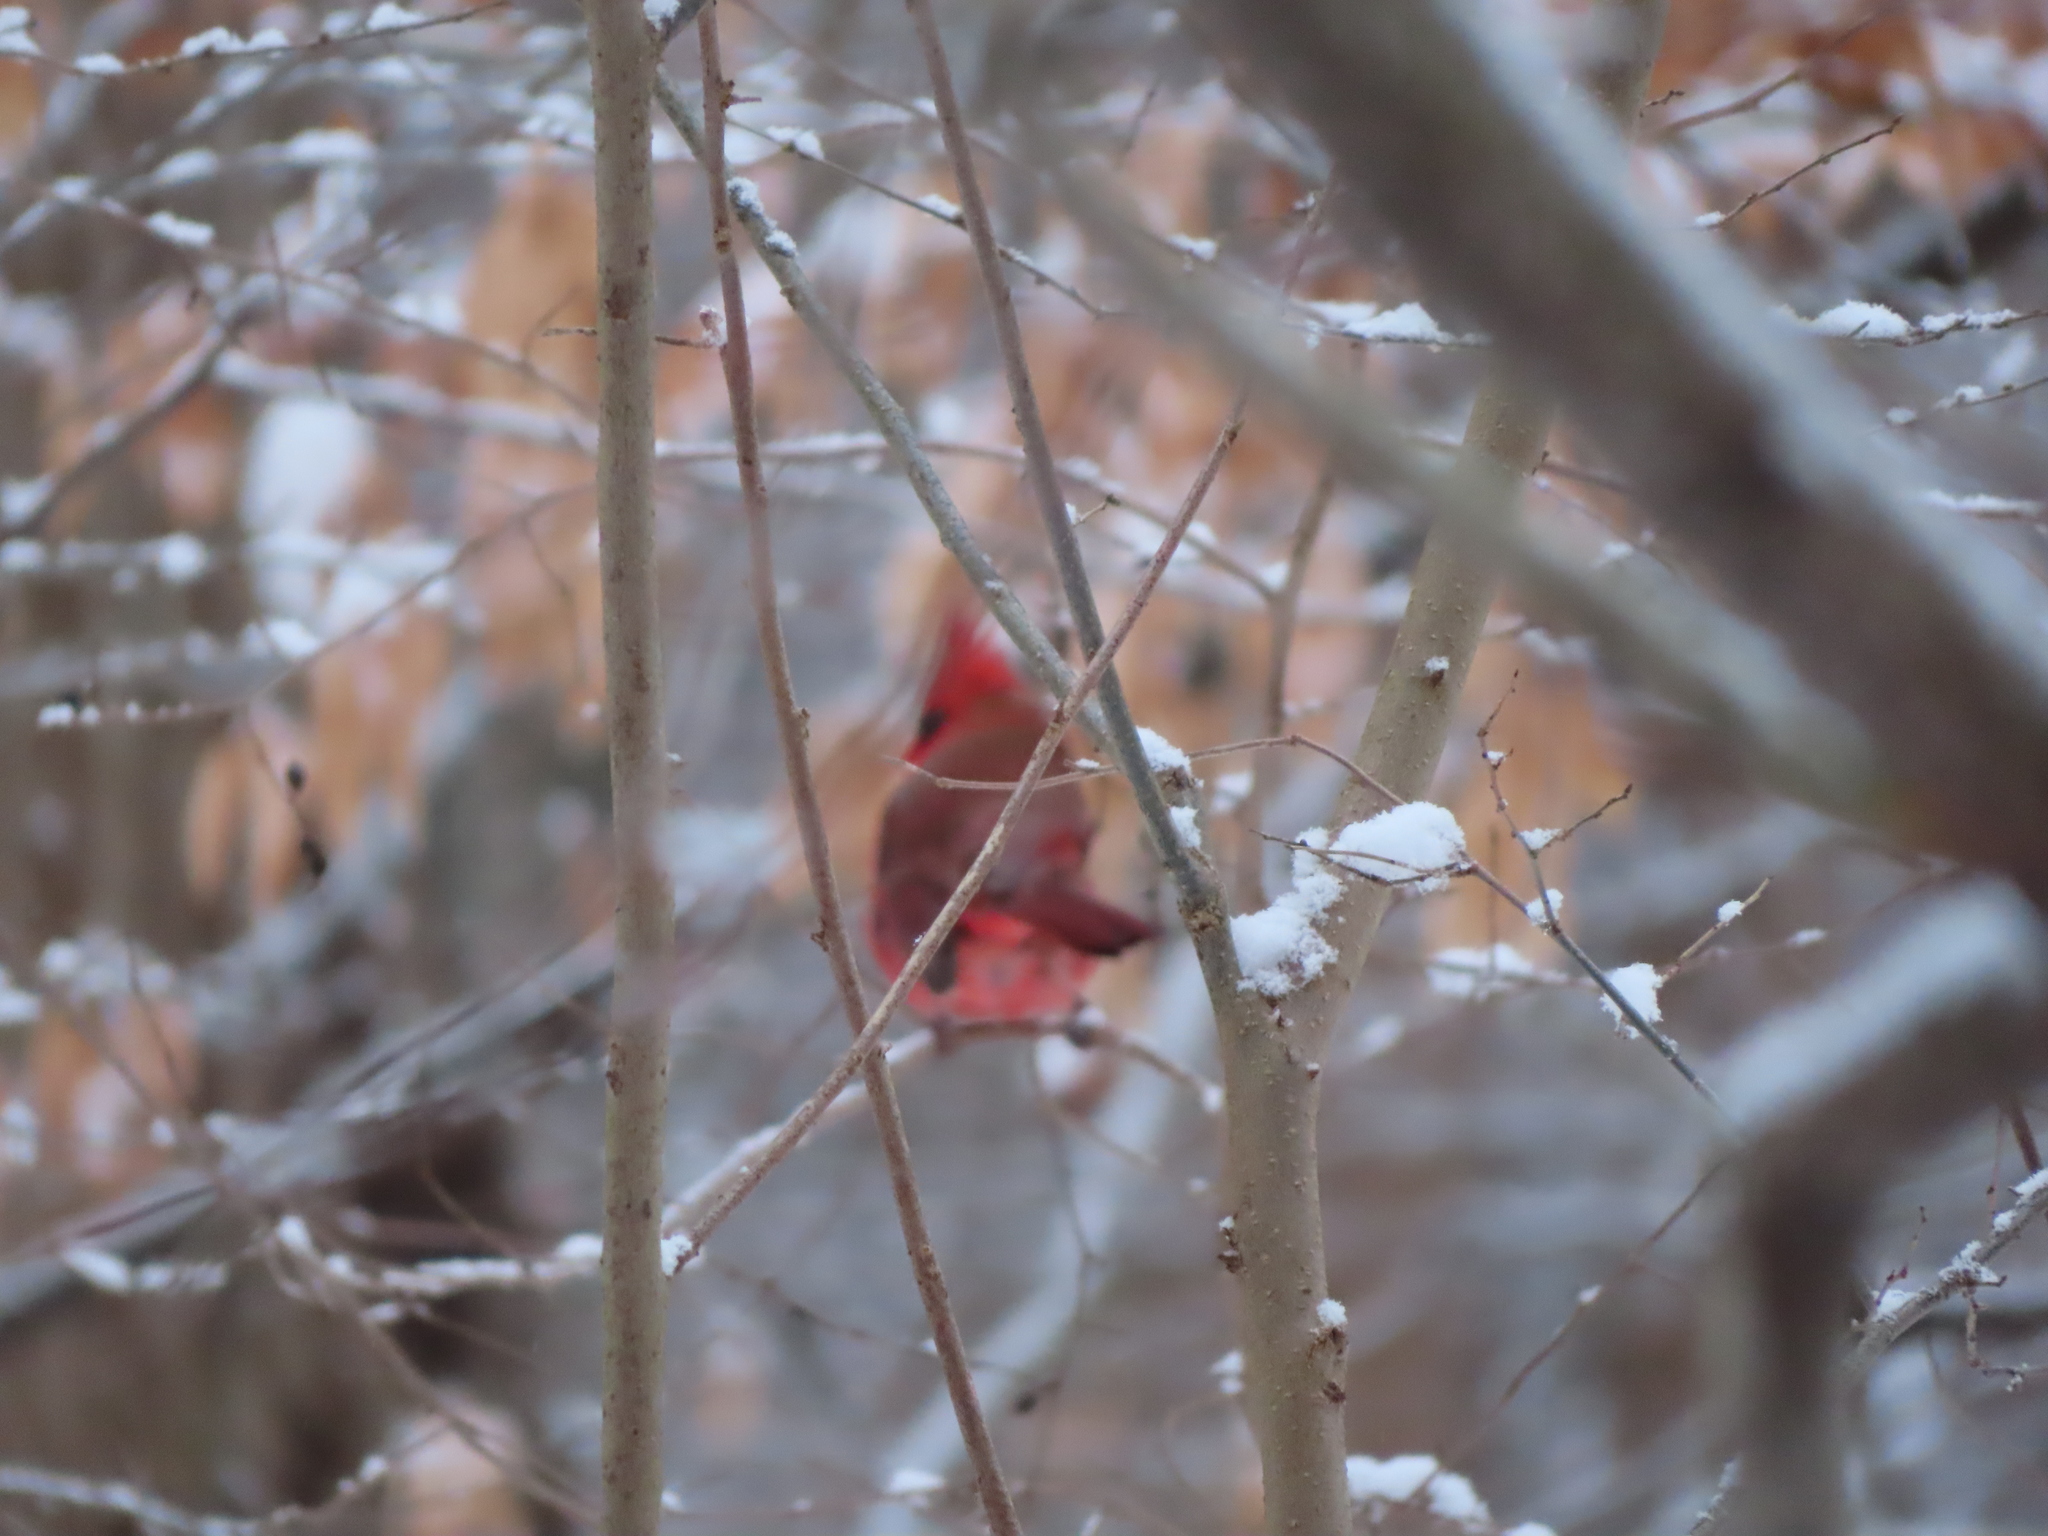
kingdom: Animalia
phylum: Chordata
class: Aves
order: Passeriformes
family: Cardinalidae
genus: Cardinalis
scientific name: Cardinalis cardinalis
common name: Northern cardinal
